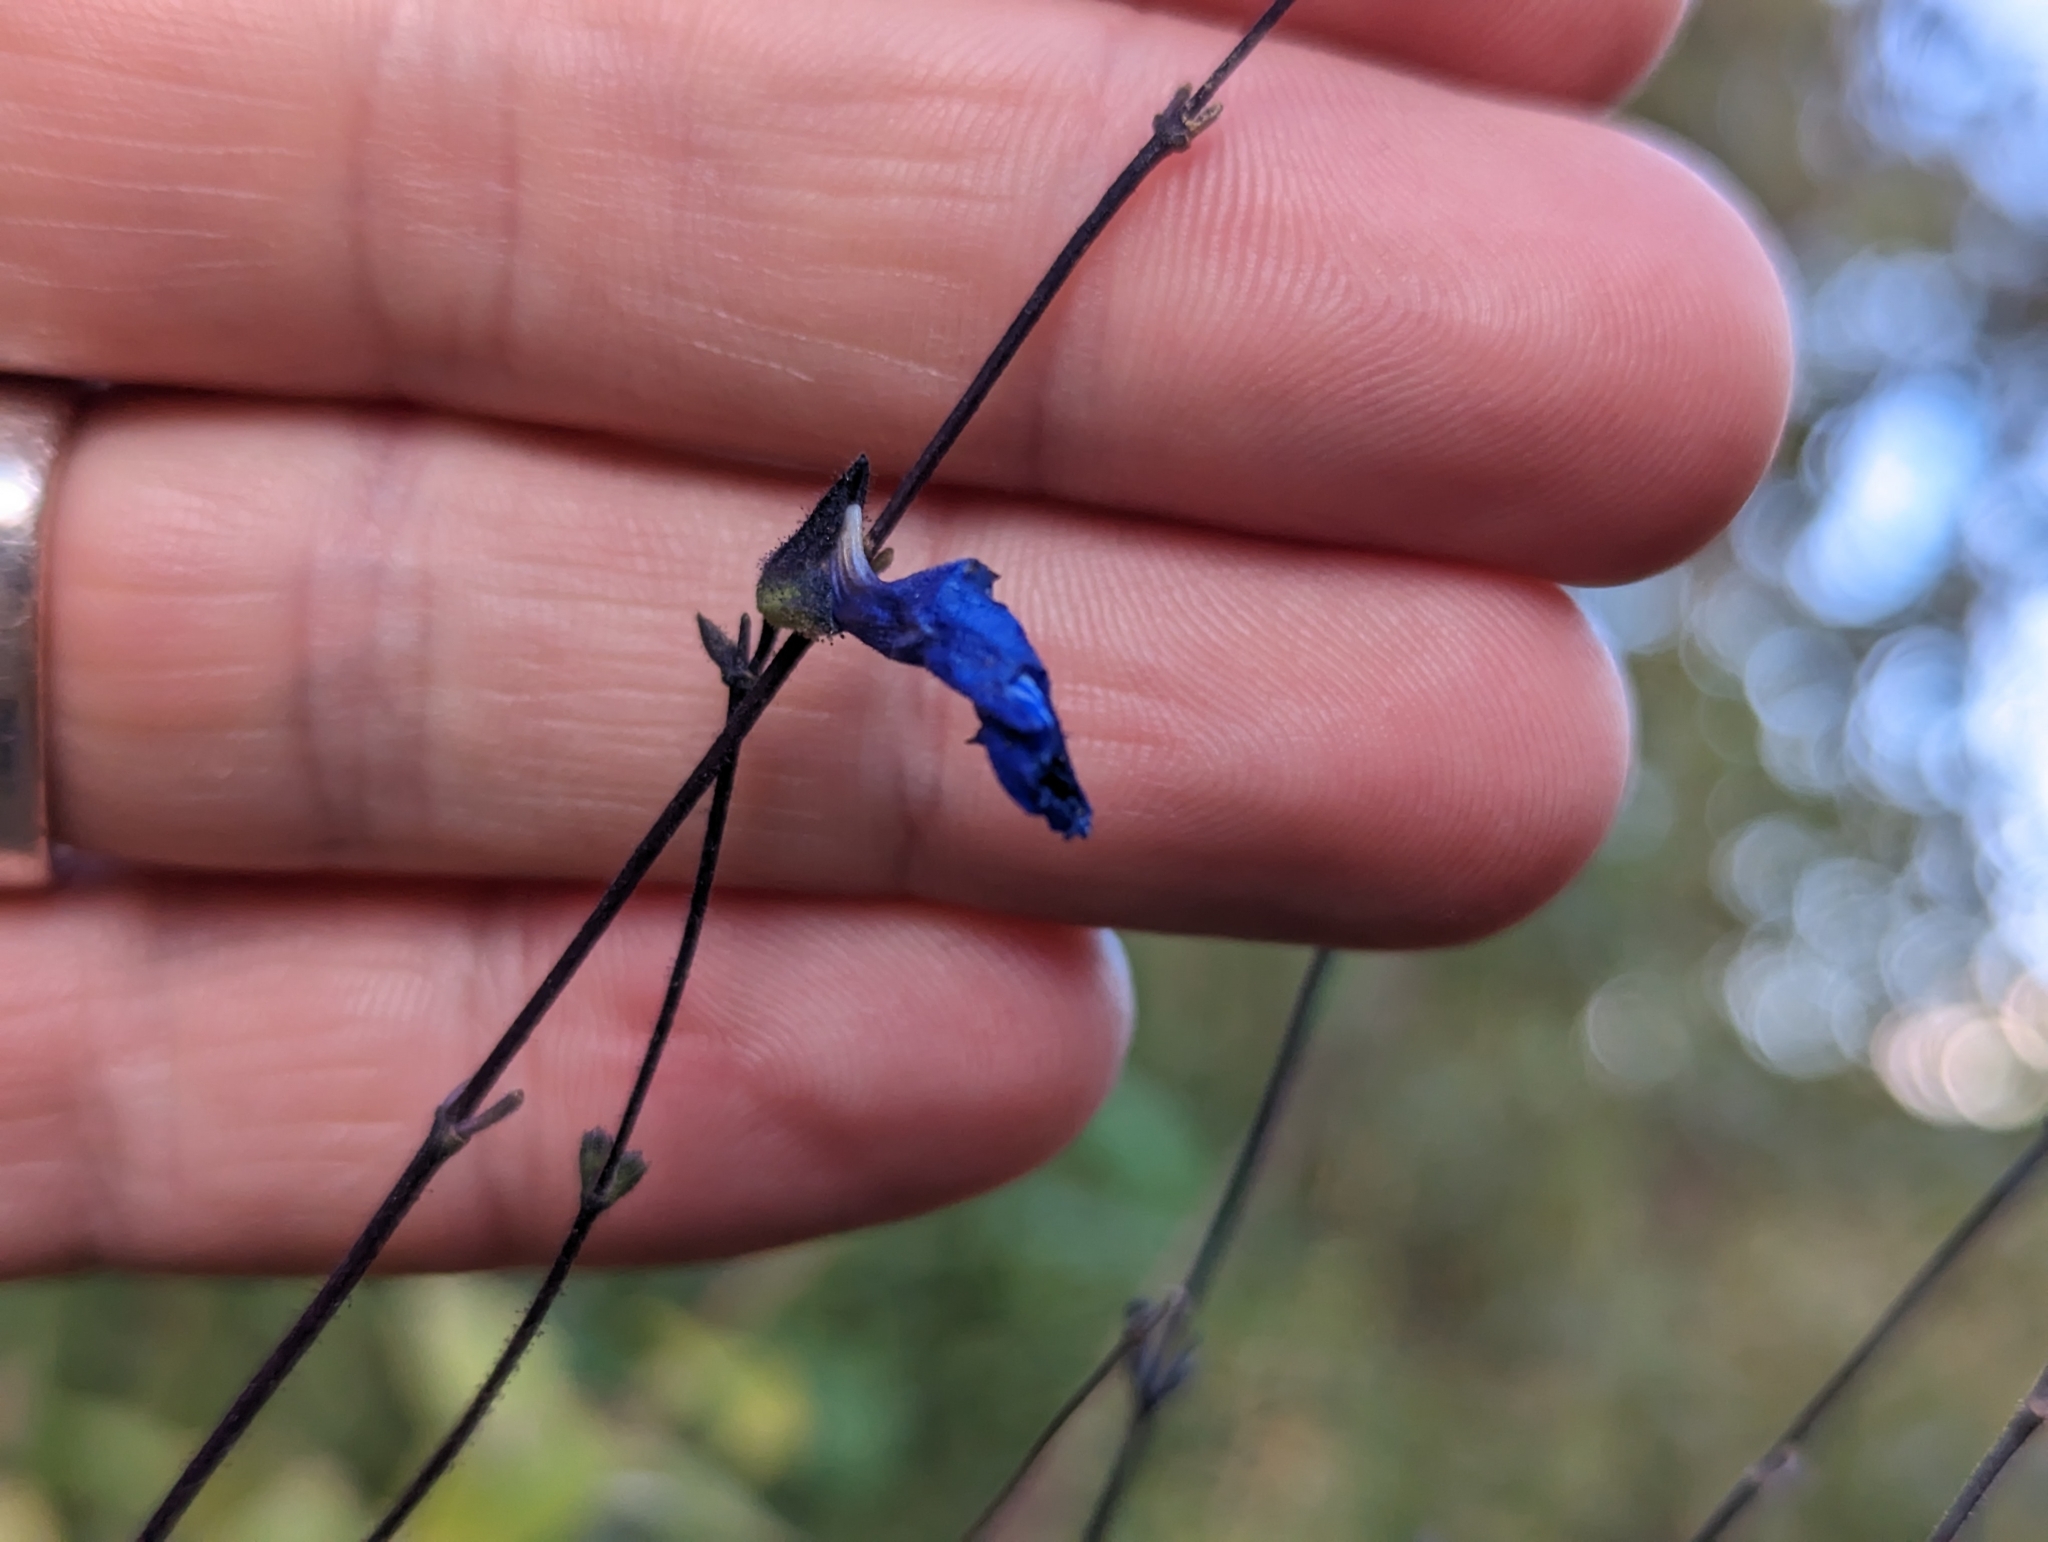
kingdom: Plantae
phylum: Tracheophyta
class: Magnoliopsida
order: Lamiales
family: Lamiaceae
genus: Salvia
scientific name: Salvia sagittata
